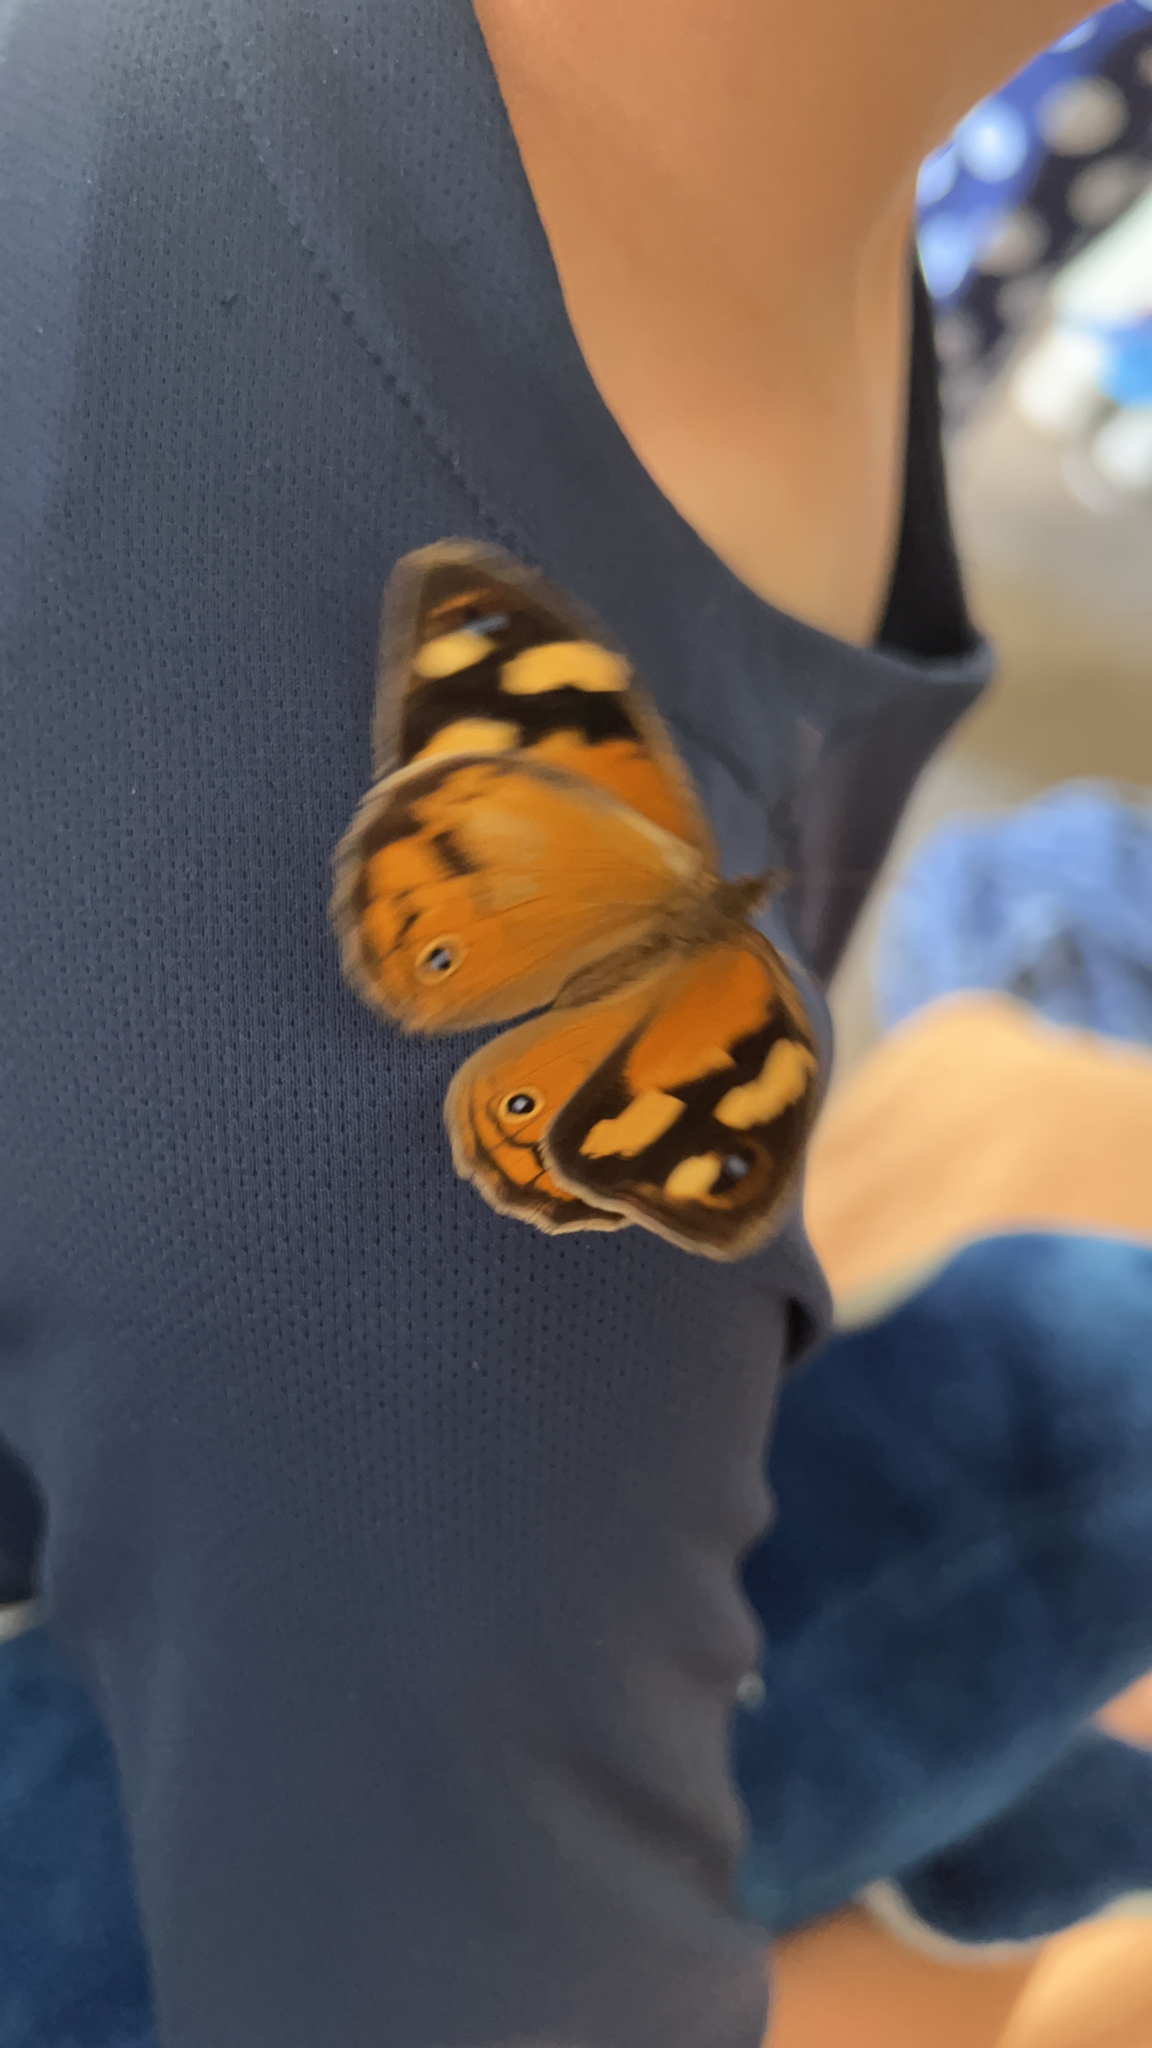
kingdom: Animalia
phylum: Arthropoda
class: Insecta
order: Lepidoptera
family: Nymphalidae
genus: Heteronympha
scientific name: Heteronympha merope
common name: Common brown
